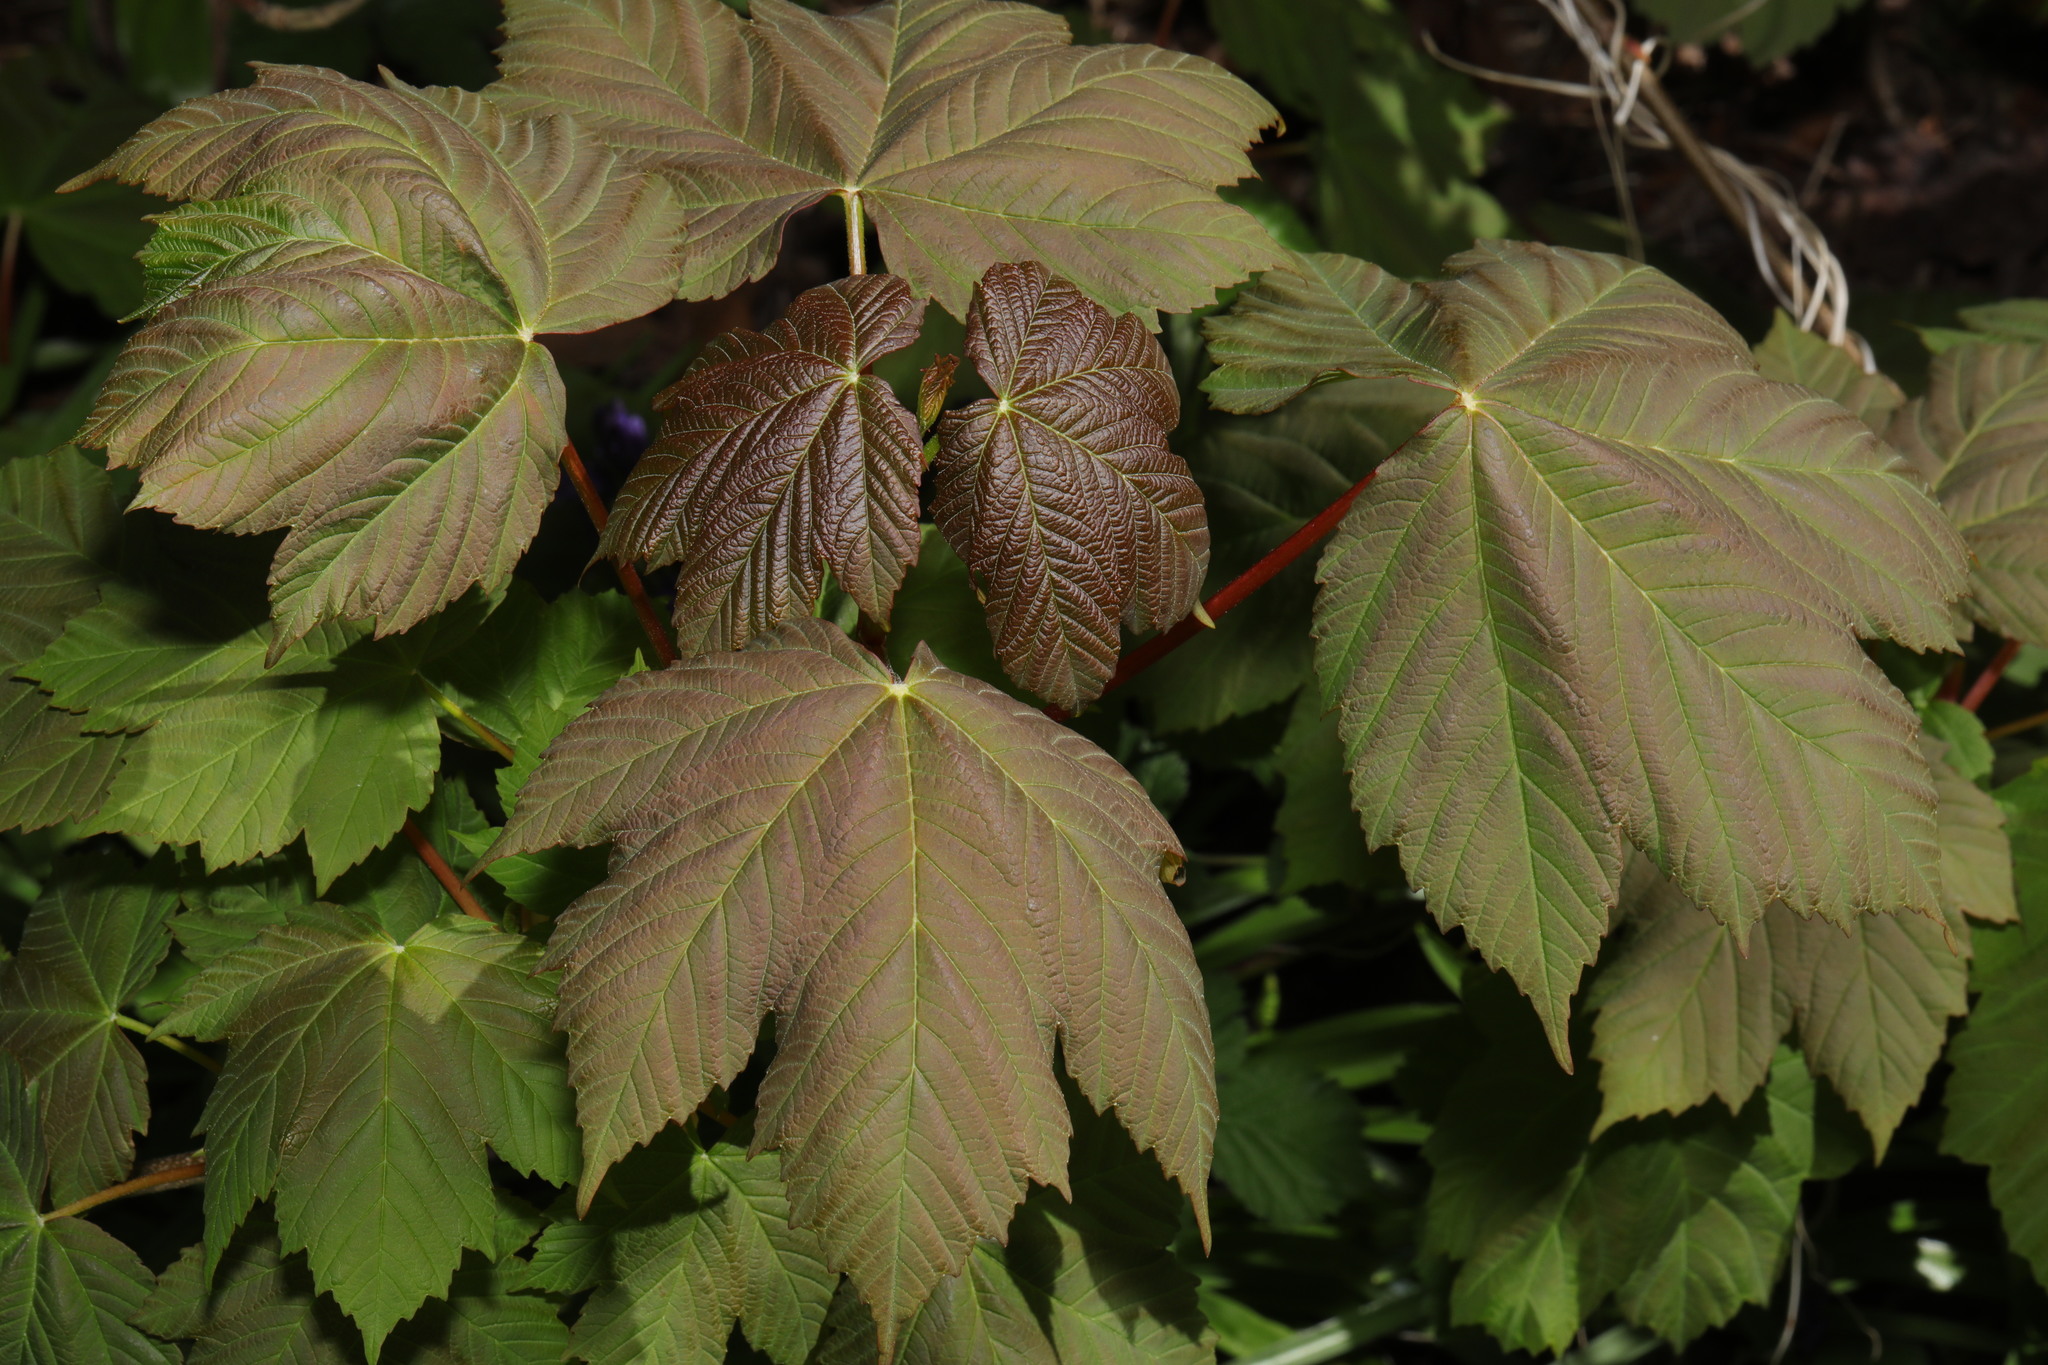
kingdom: Plantae
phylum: Tracheophyta
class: Magnoliopsida
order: Sapindales
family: Sapindaceae
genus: Acer
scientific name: Acer pseudoplatanus
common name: Sycamore
